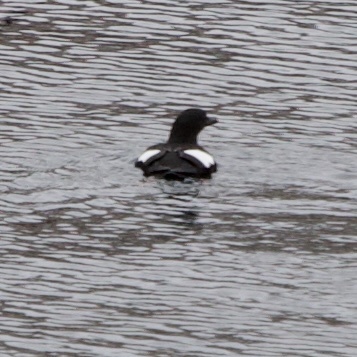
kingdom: Animalia
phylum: Chordata
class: Aves
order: Charadriiformes
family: Alcidae
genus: Cepphus
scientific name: Cepphus grylle
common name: Black guillemot
